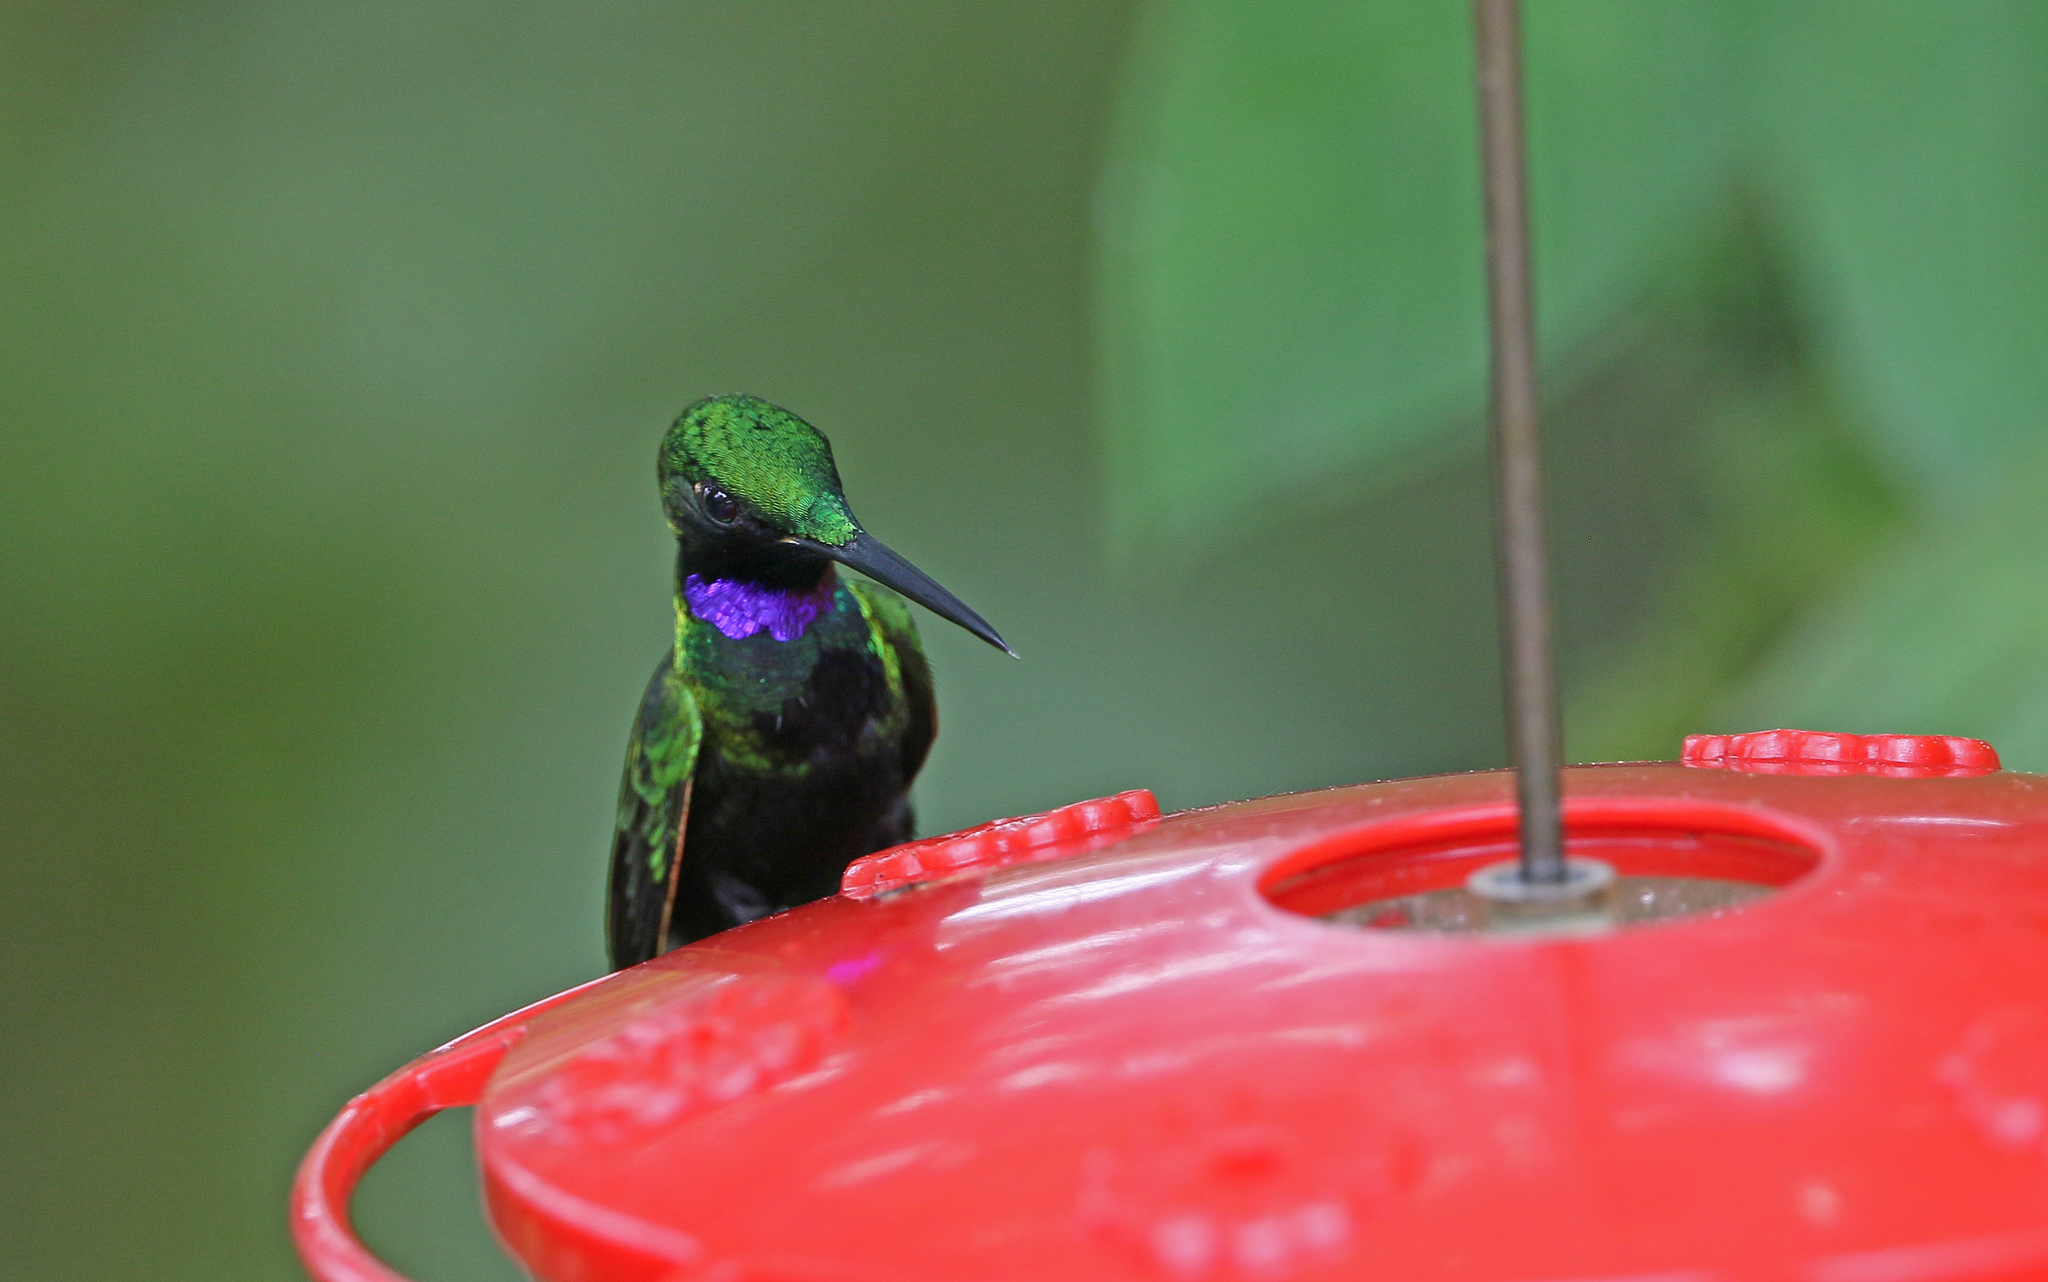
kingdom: Animalia
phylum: Chordata
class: Aves
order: Apodiformes
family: Trochilidae
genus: Heliodoxa
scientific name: Heliodoxa schreibersii
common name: Black-throated brilliant
